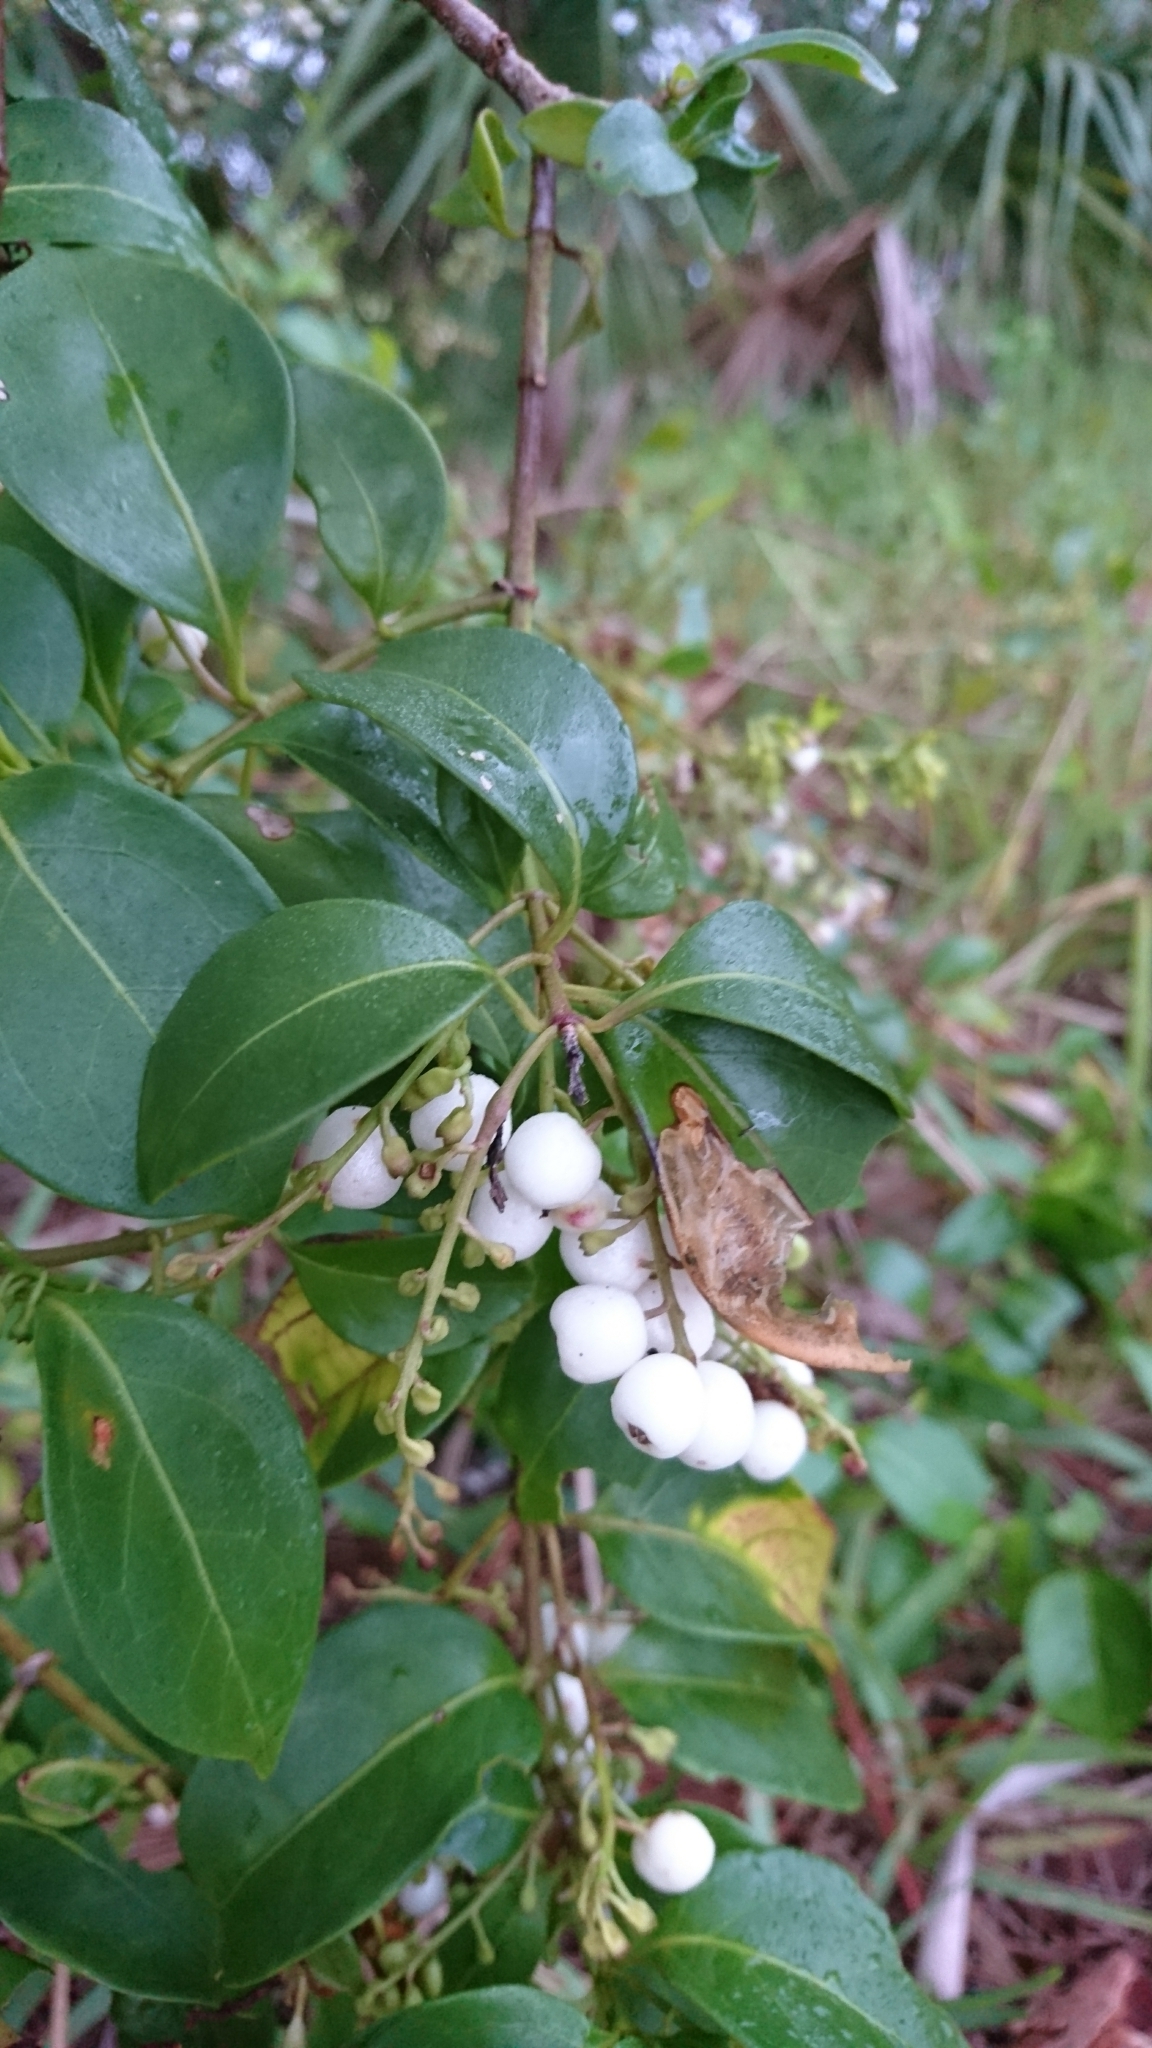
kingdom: Plantae
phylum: Tracheophyta
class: Magnoliopsida
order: Gentianales
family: Rubiaceae
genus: Chiococca
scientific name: Chiococca alba
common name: Snowberry
